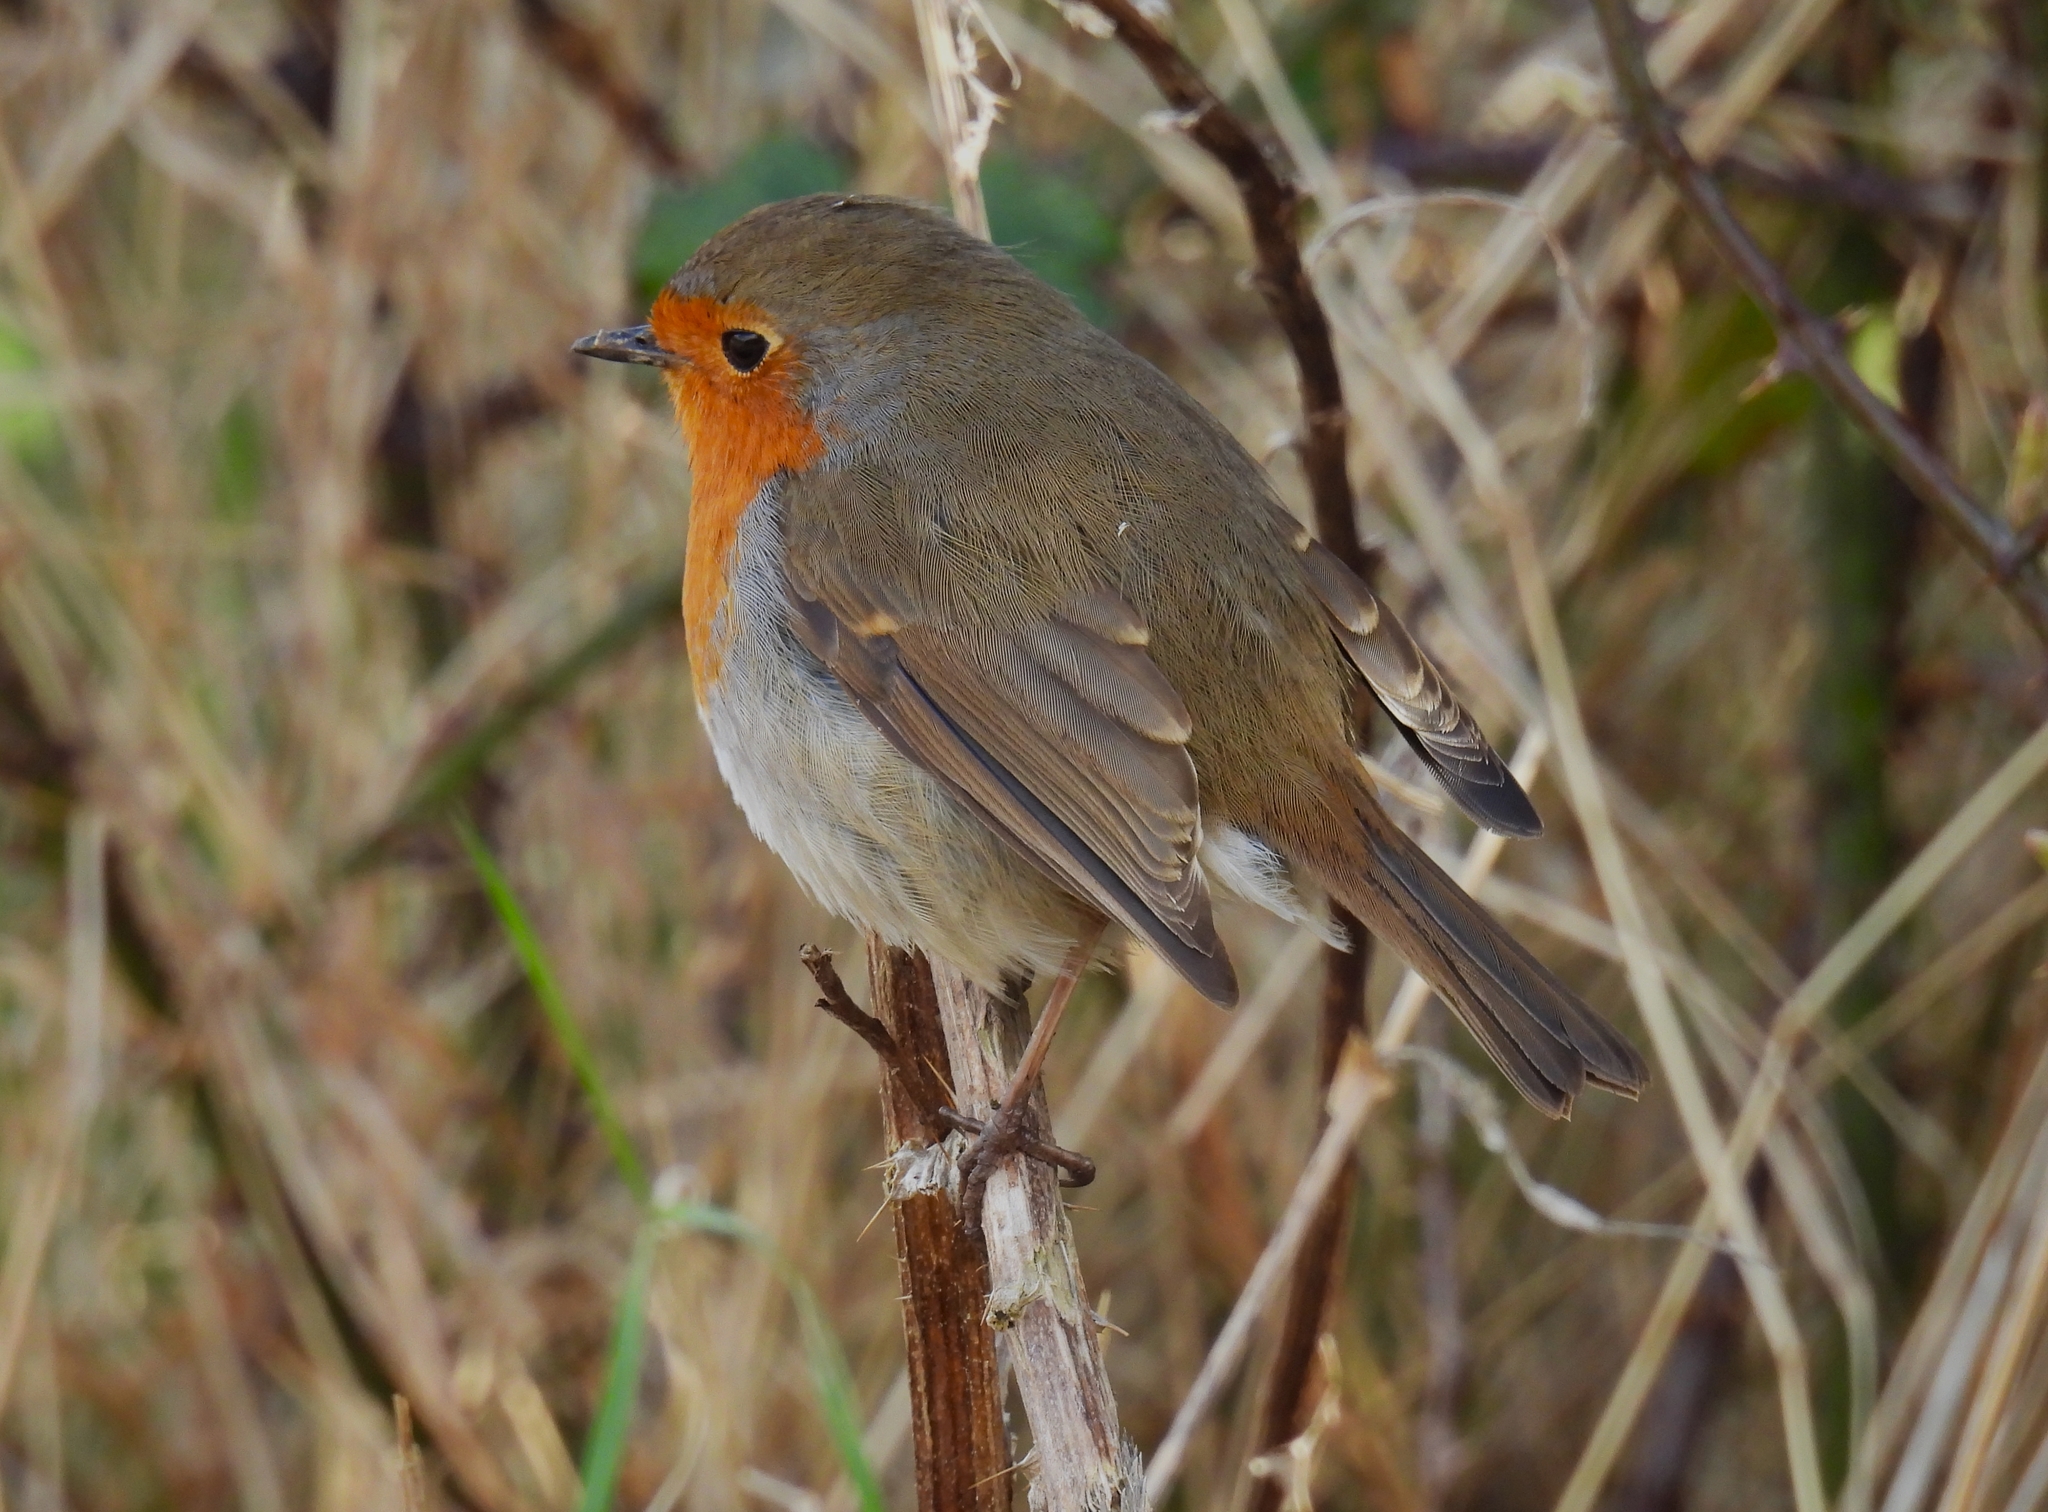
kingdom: Animalia
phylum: Chordata
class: Aves
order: Passeriformes
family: Muscicapidae
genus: Erithacus
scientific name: Erithacus rubecula
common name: European robin
